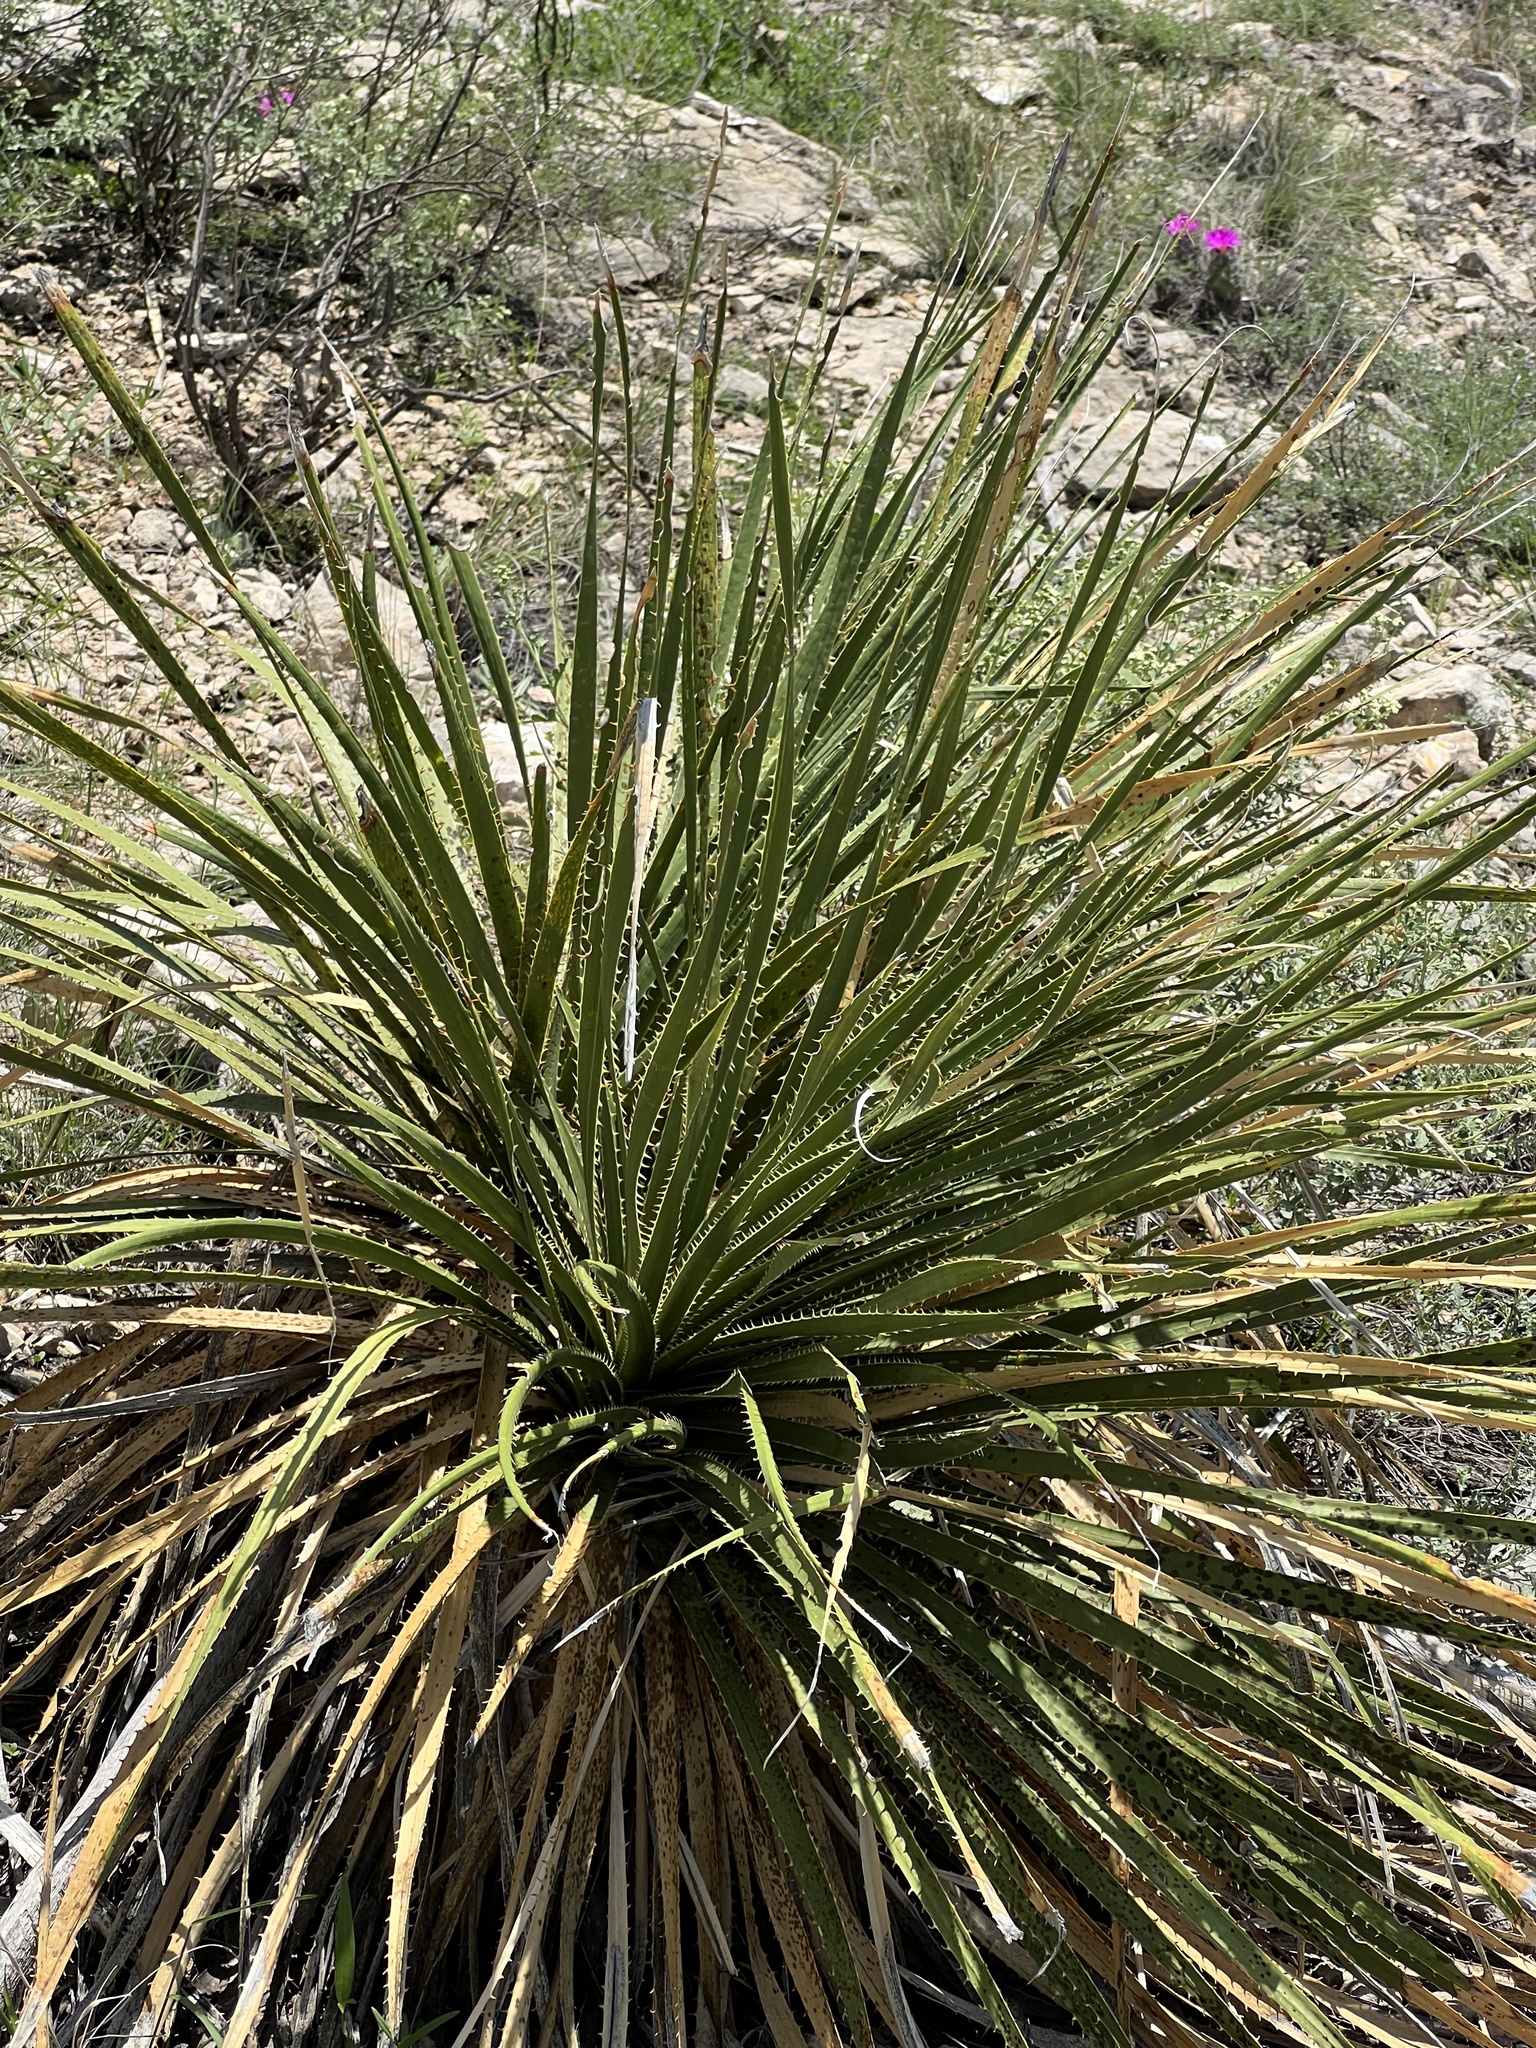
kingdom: Plantae
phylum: Tracheophyta
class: Liliopsida
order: Asparagales
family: Asparagaceae
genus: Dasylirion
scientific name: Dasylirion leiophyllum
